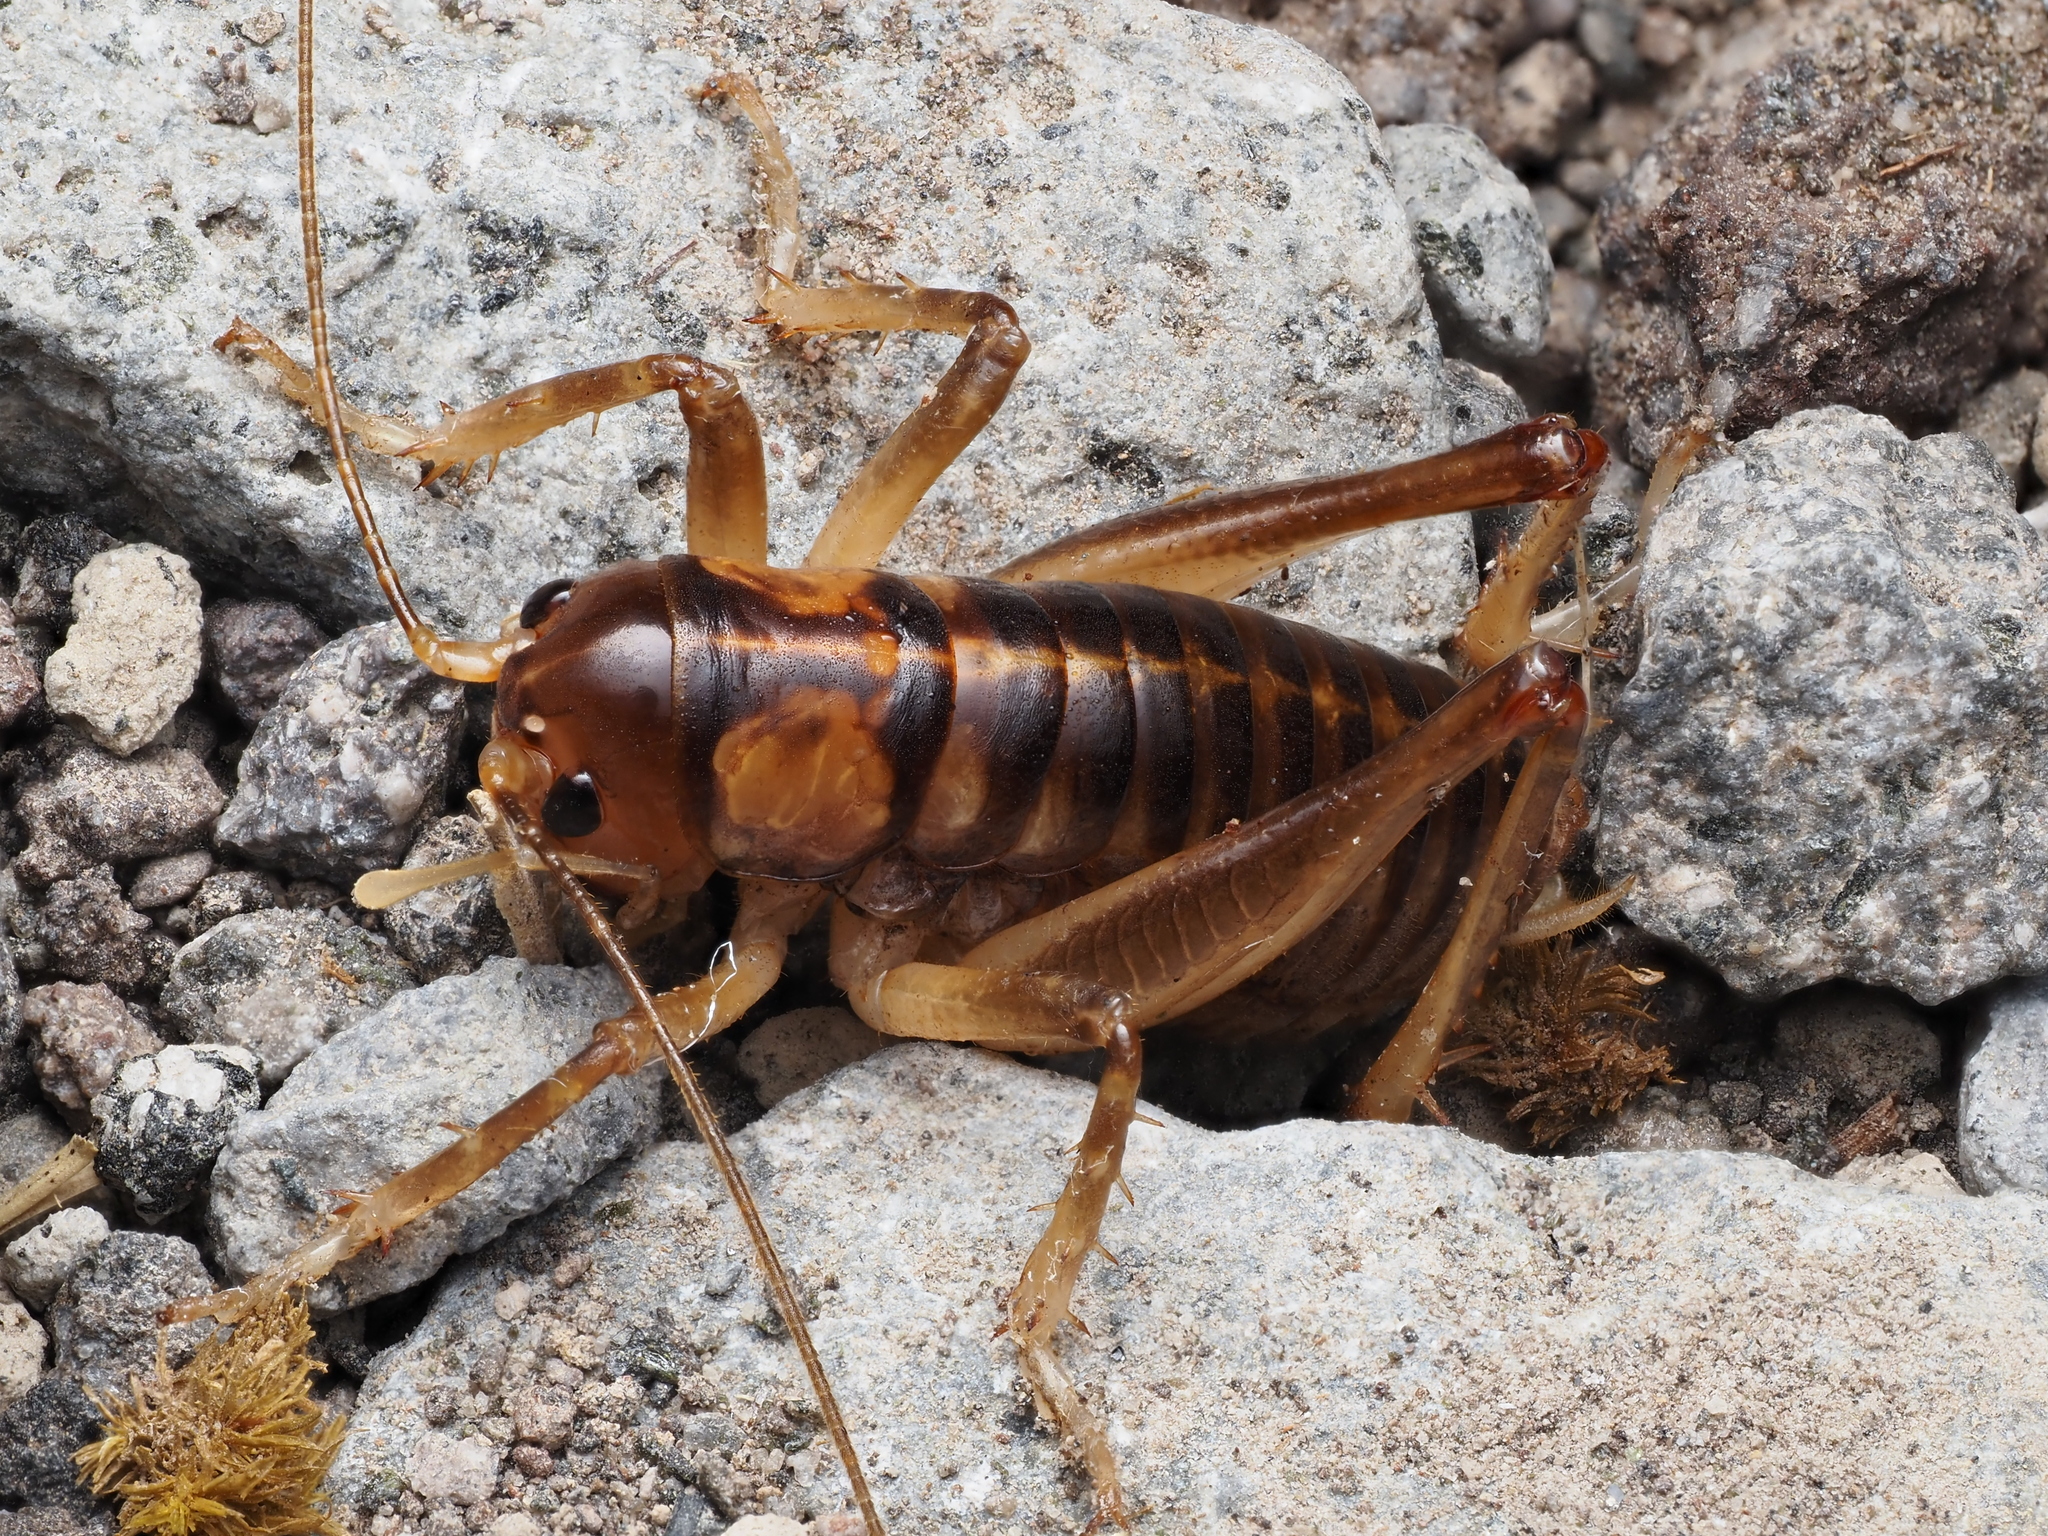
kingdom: Animalia
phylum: Arthropoda
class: Insecta
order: Orthoptera
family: Anostostomatidae
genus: Hemiandrus
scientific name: Hemiandrus pallitarsis
